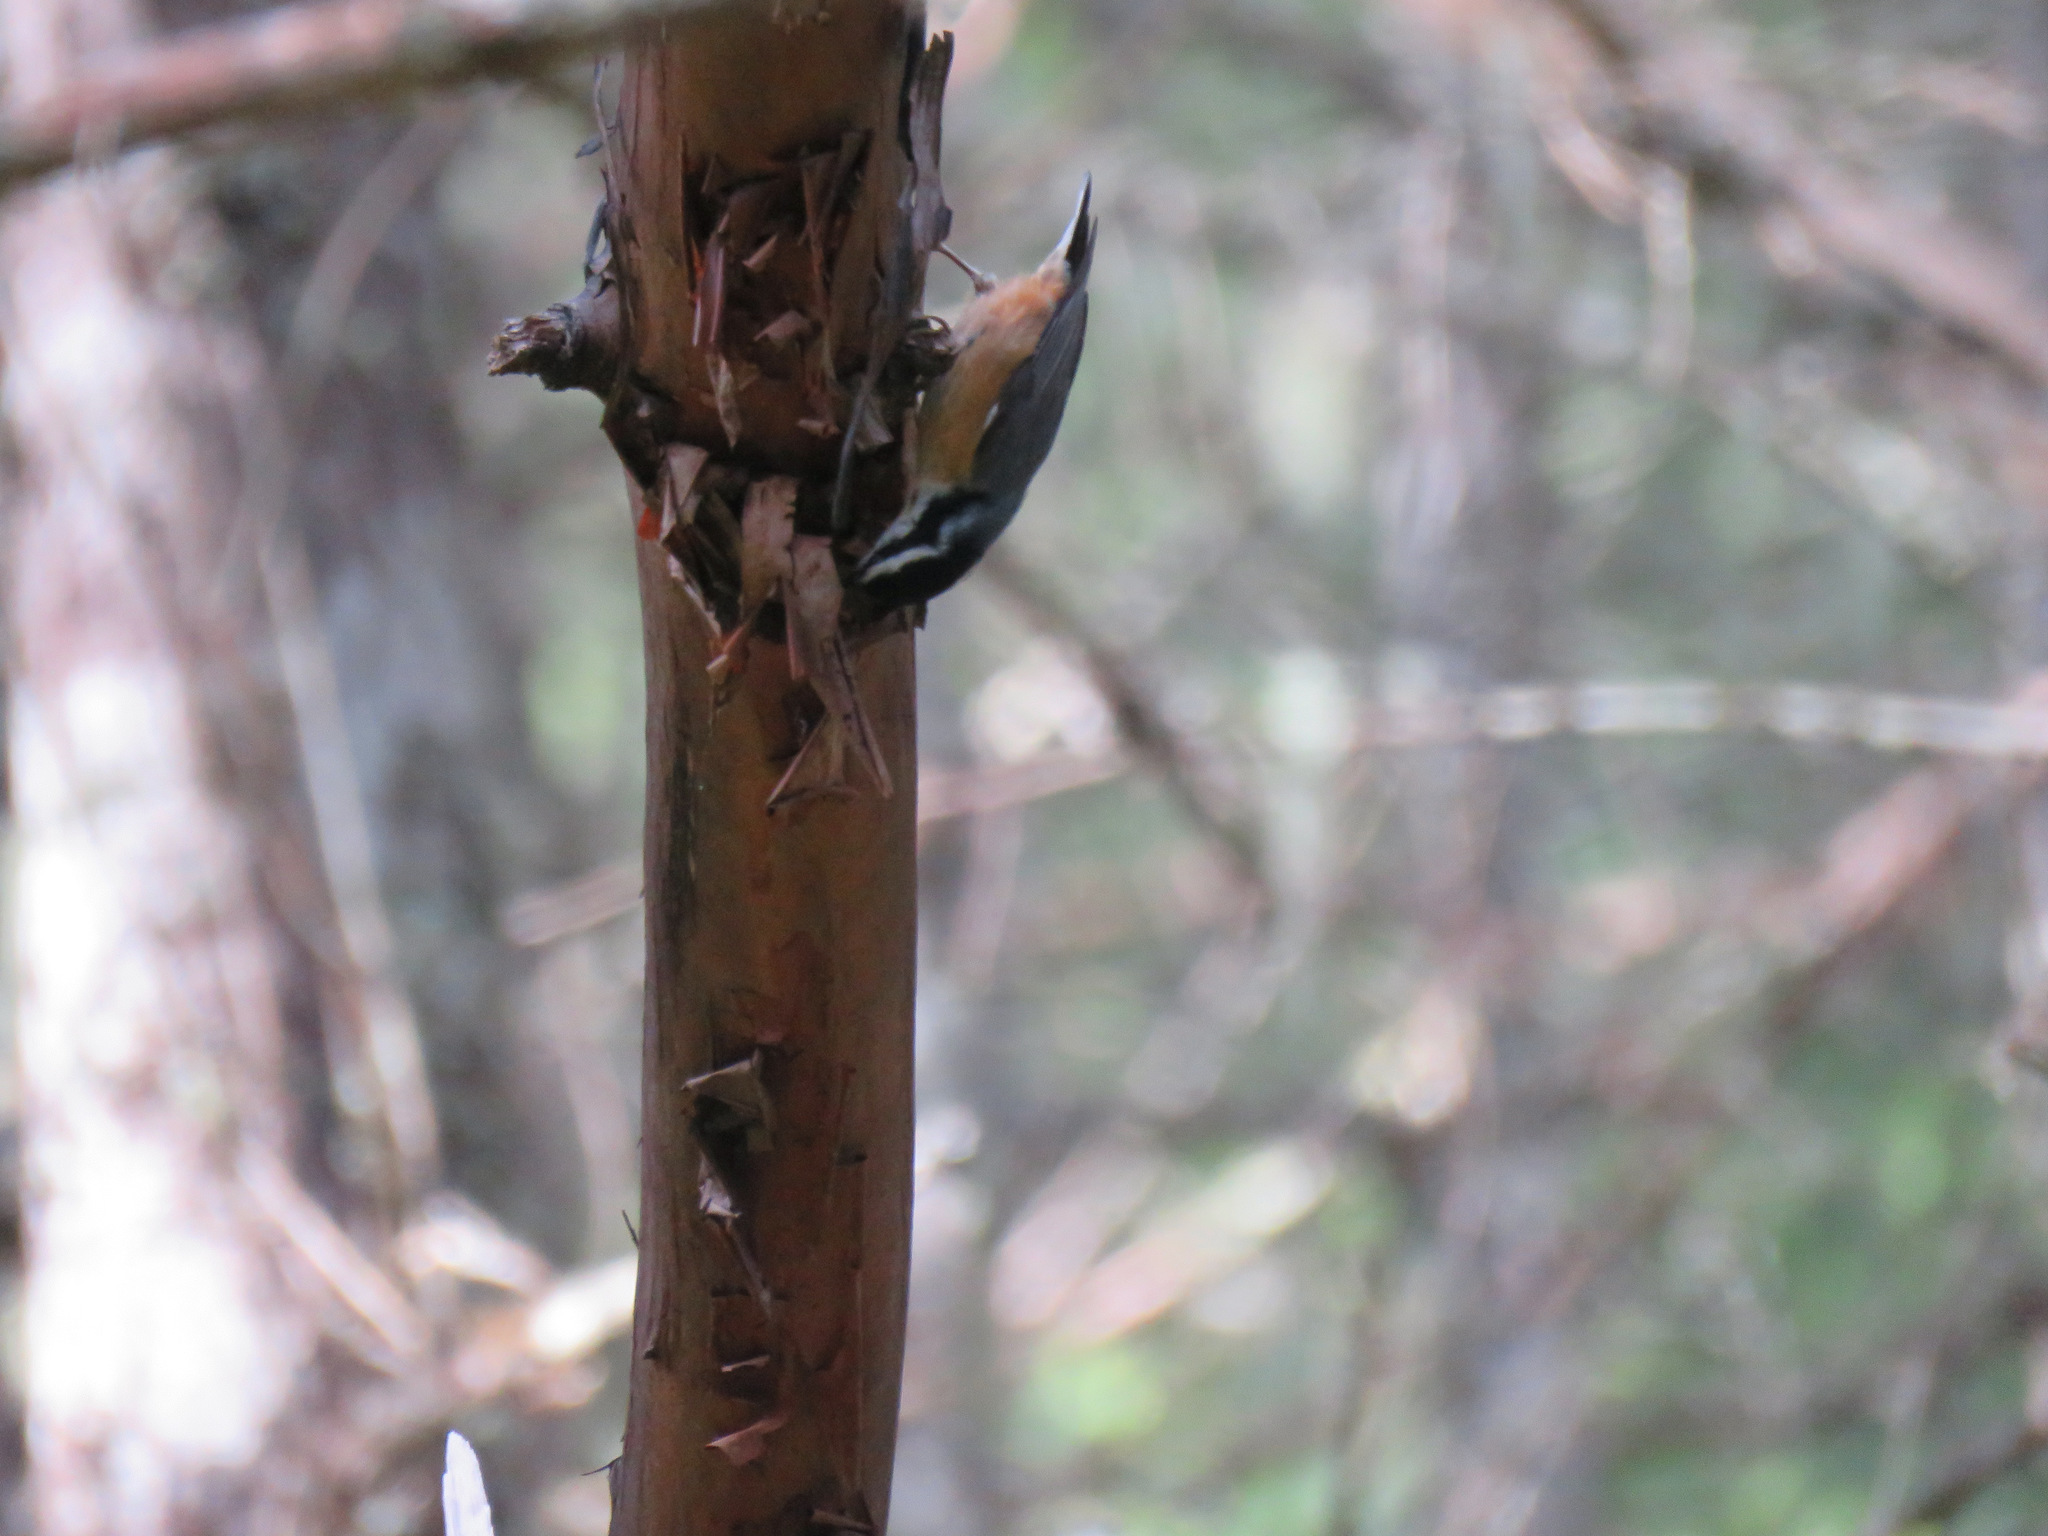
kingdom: Animalia
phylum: Chordata
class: Aves
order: Passeriformes
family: Sittidae
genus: Sitta
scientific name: Sitta canadensis
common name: Red-breasted nuthatch
